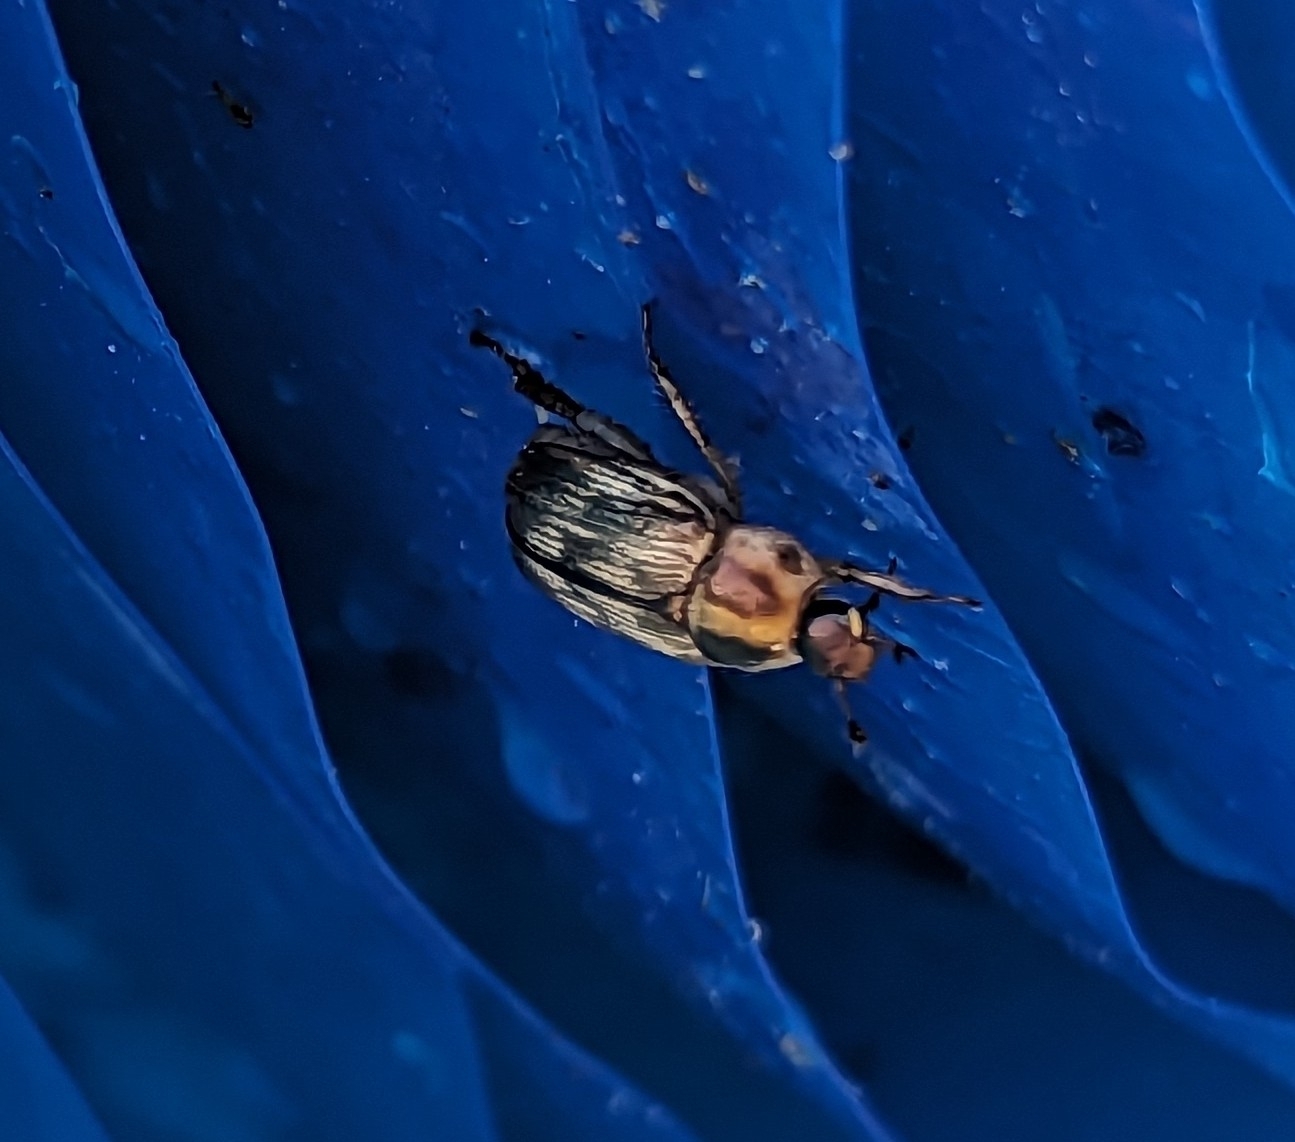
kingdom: Animalia
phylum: Arthropoda
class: Insecta
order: Coleoptera
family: Scarabaeidae
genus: Exomala
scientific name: Exomala orientalis
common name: Oriental beetle
